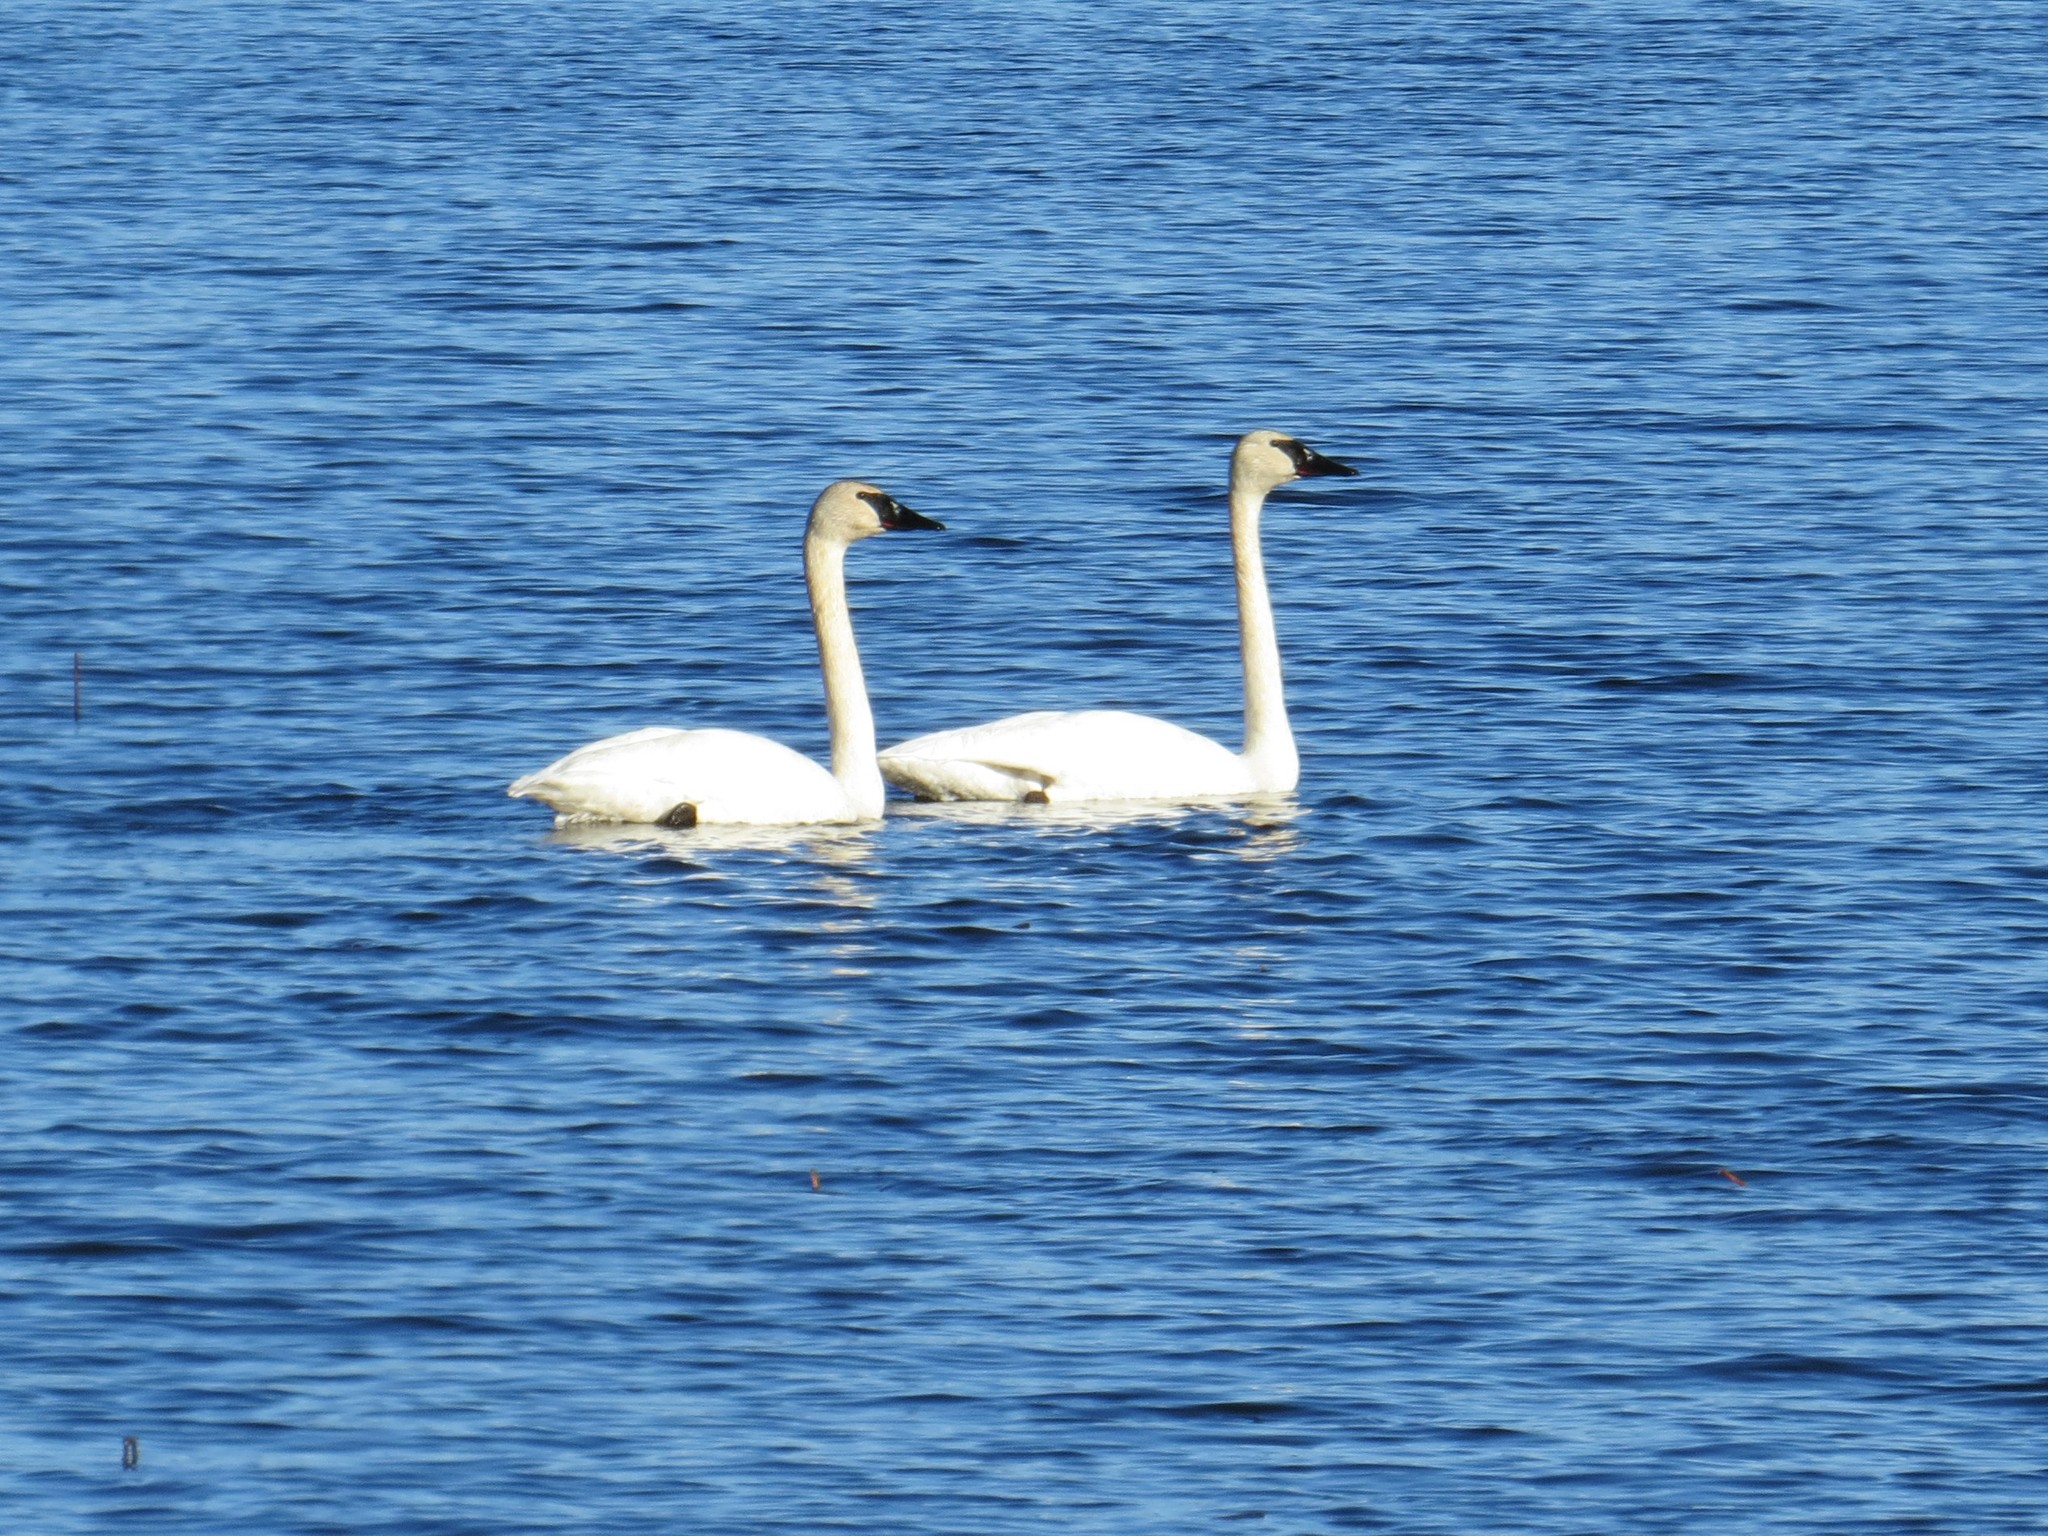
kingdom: Animalia
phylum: Chordata
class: Aves
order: Anseriformes
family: Anatidae
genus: Cygnus
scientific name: Cygnus buccinator
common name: Trumpeter swan
